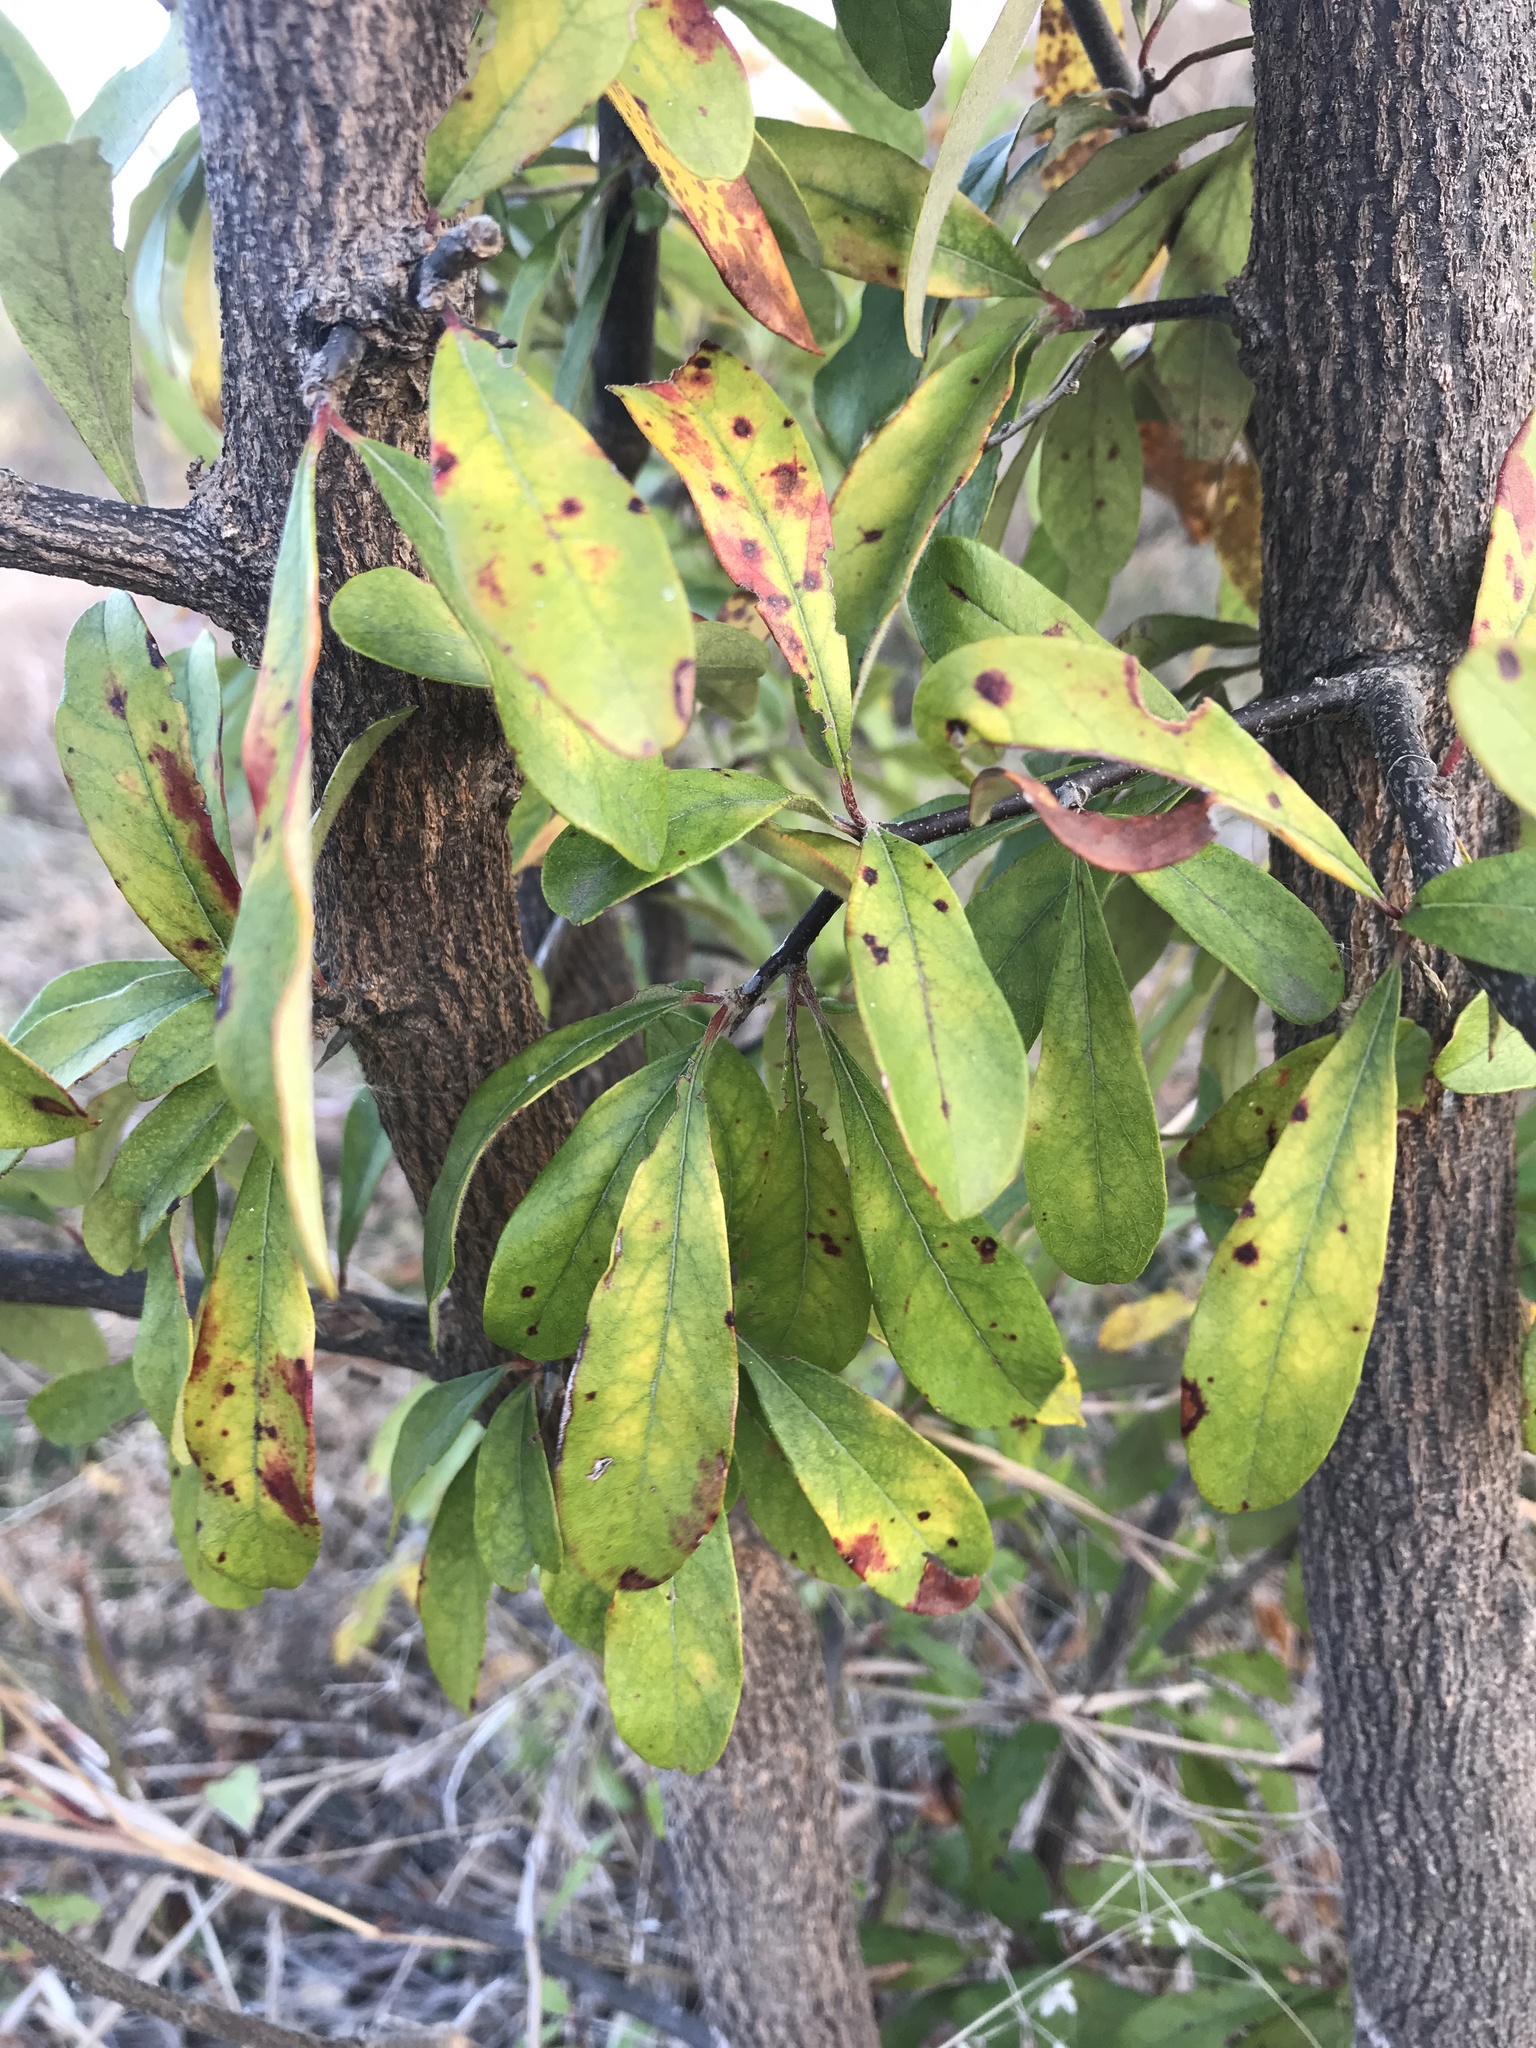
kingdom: Plantae
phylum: Tracheophyta
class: Magnoliopsida
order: Ericales
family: Sapotaceae
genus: Sideroxylon
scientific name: Sideroxylon lanuginosum
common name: Chittamwood
